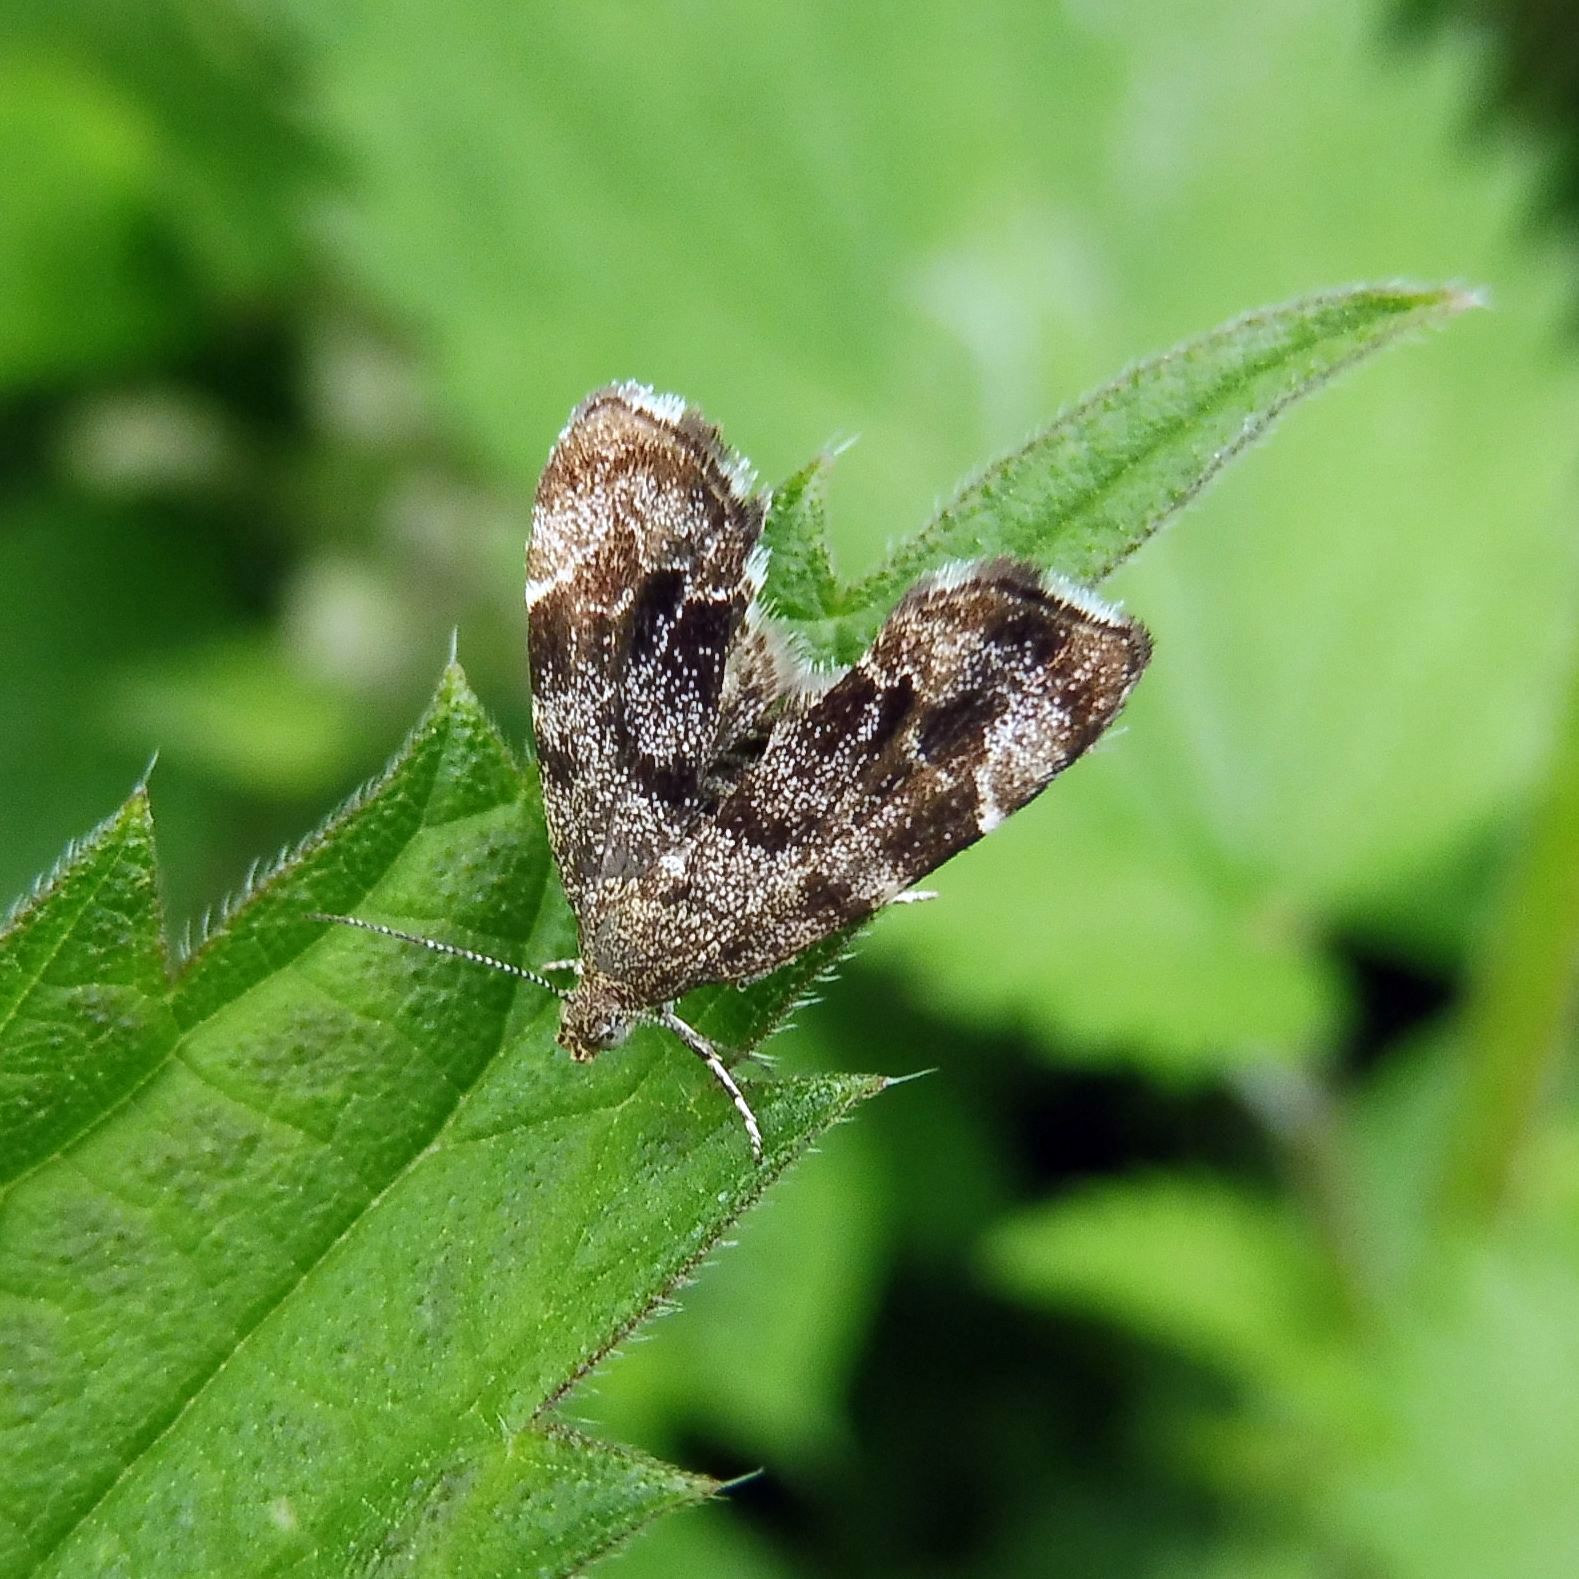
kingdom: Animalia
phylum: Arthropoda
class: Insecta
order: Lepidoptera
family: Choreutidae
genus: Anthophila
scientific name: Anthophila fabriciana
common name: Nettle-tap
